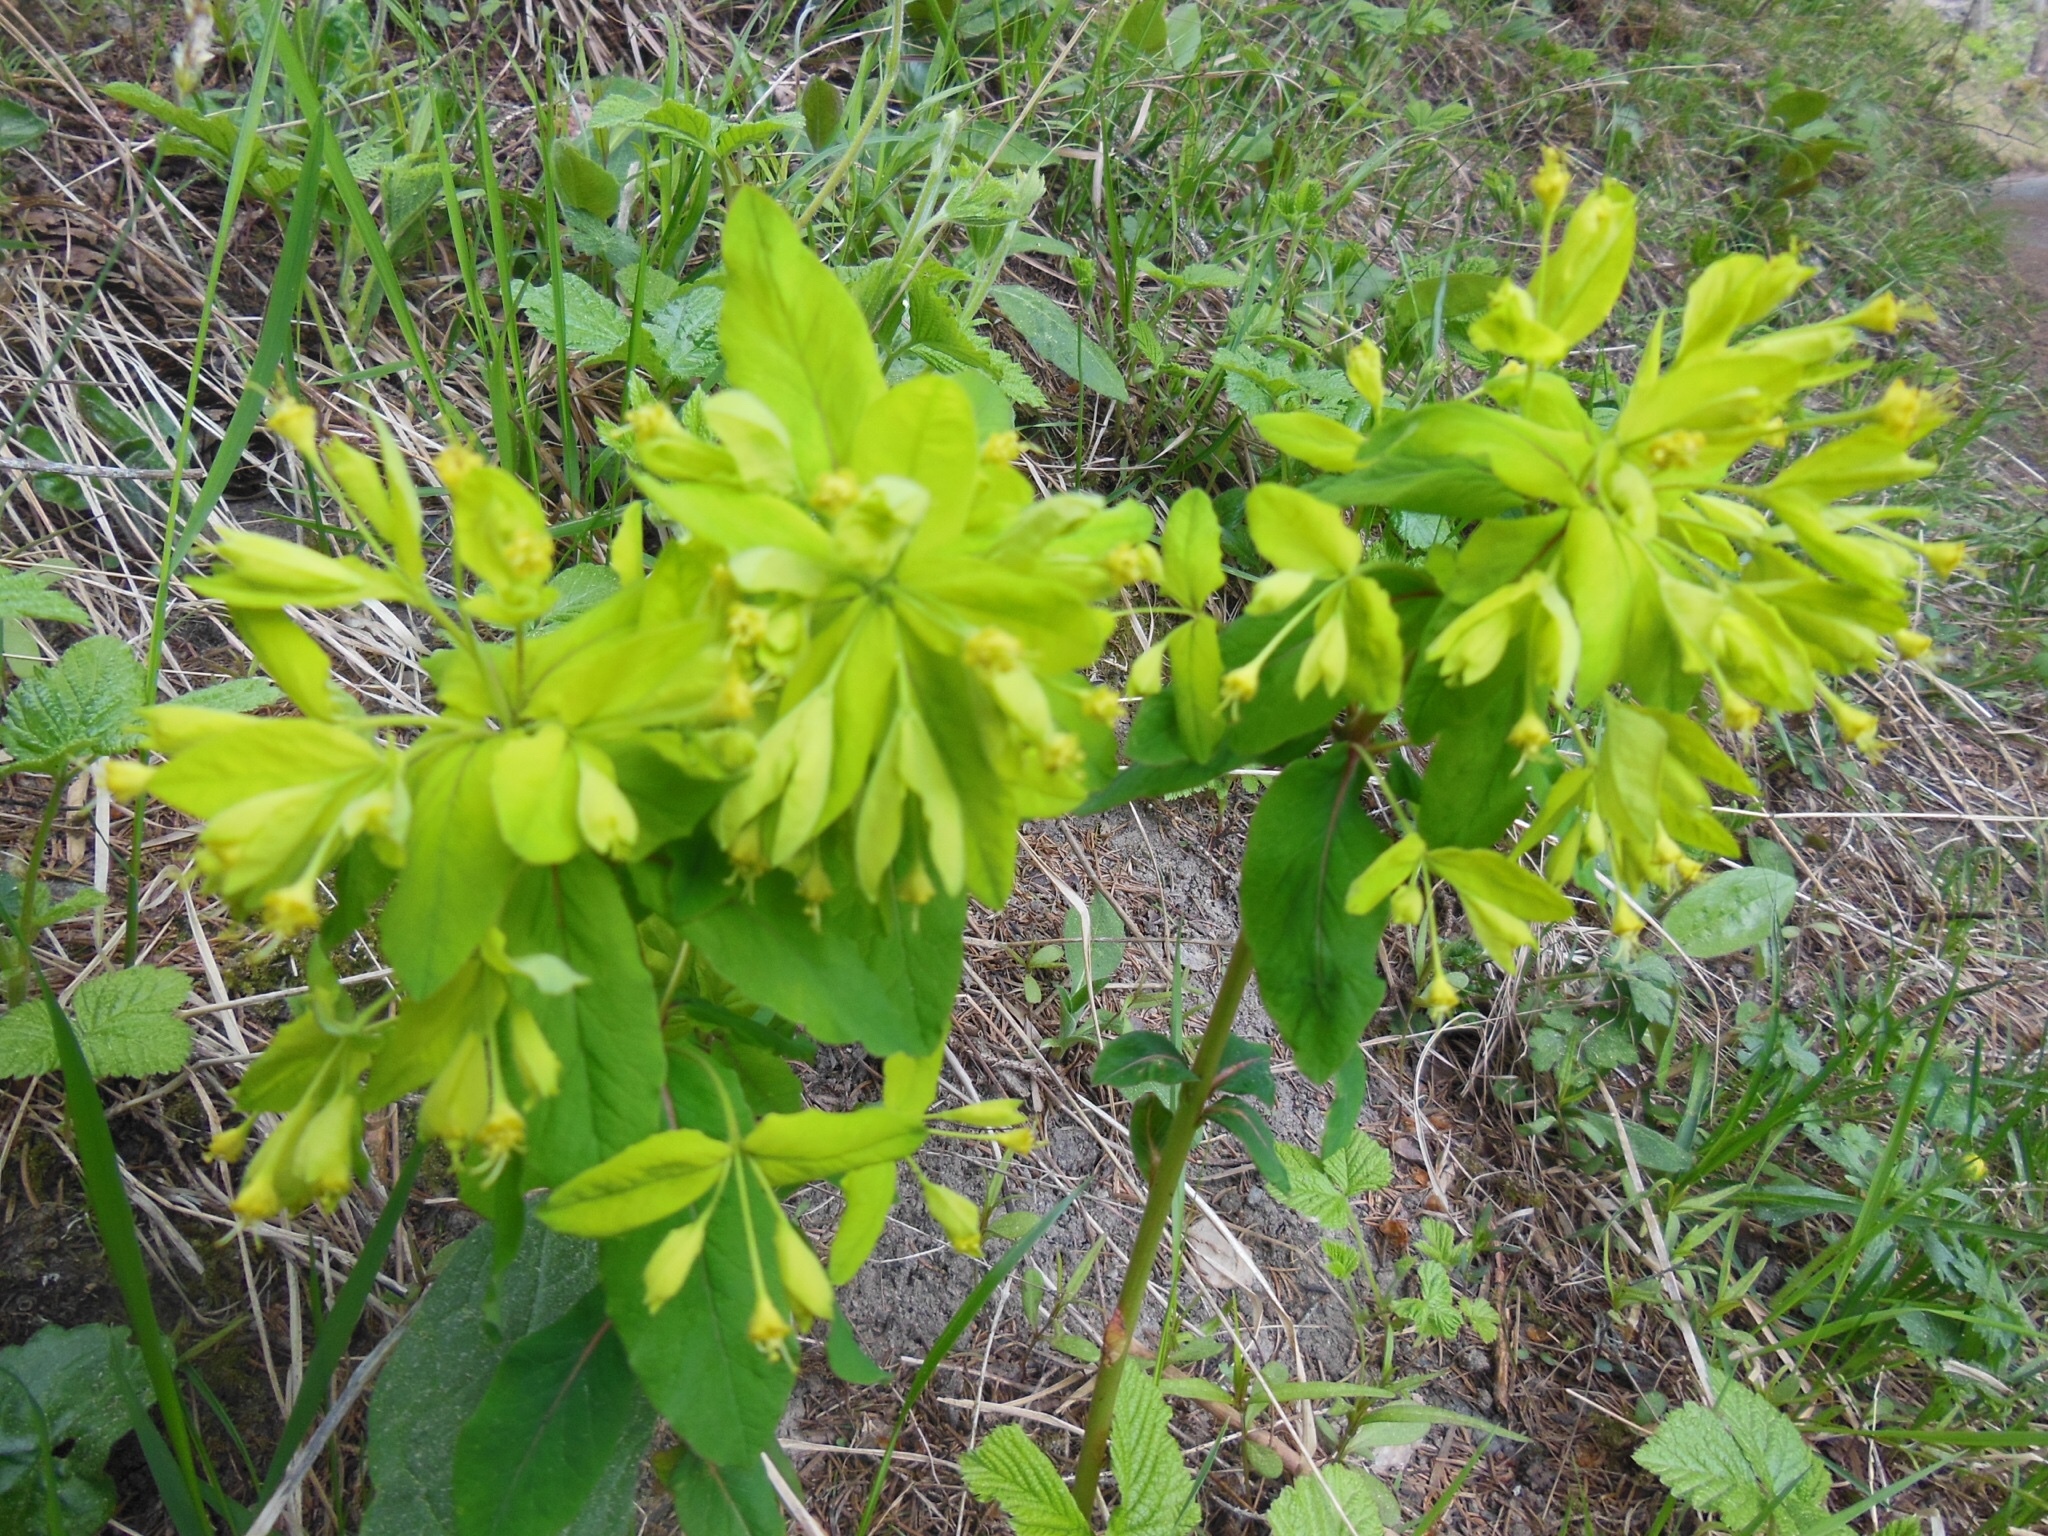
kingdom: Plantae
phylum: Tracheophyta
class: Magnoliopsida
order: Malpighiales
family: Euphorbiaceae
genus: Euphorbia
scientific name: Euphorbia carniolica
